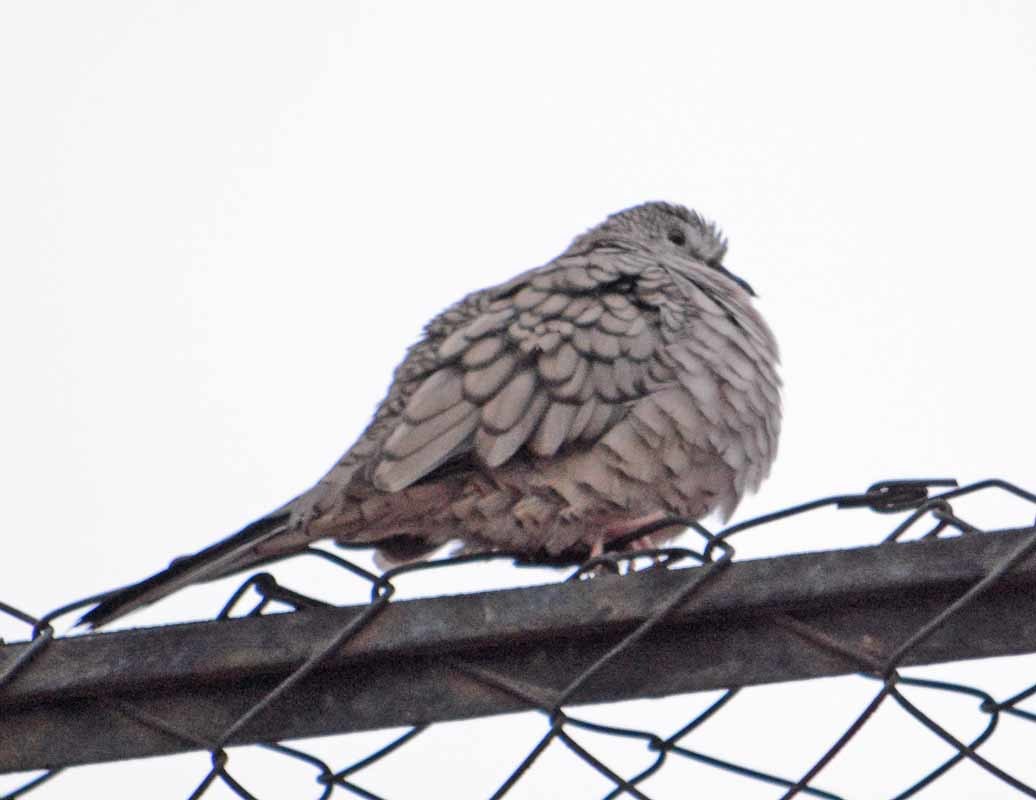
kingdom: Animalia
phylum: Chordata
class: Aves
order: Columbiformes
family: Columbidae
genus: Columbina
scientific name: Columbina inca
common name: Inca dove
